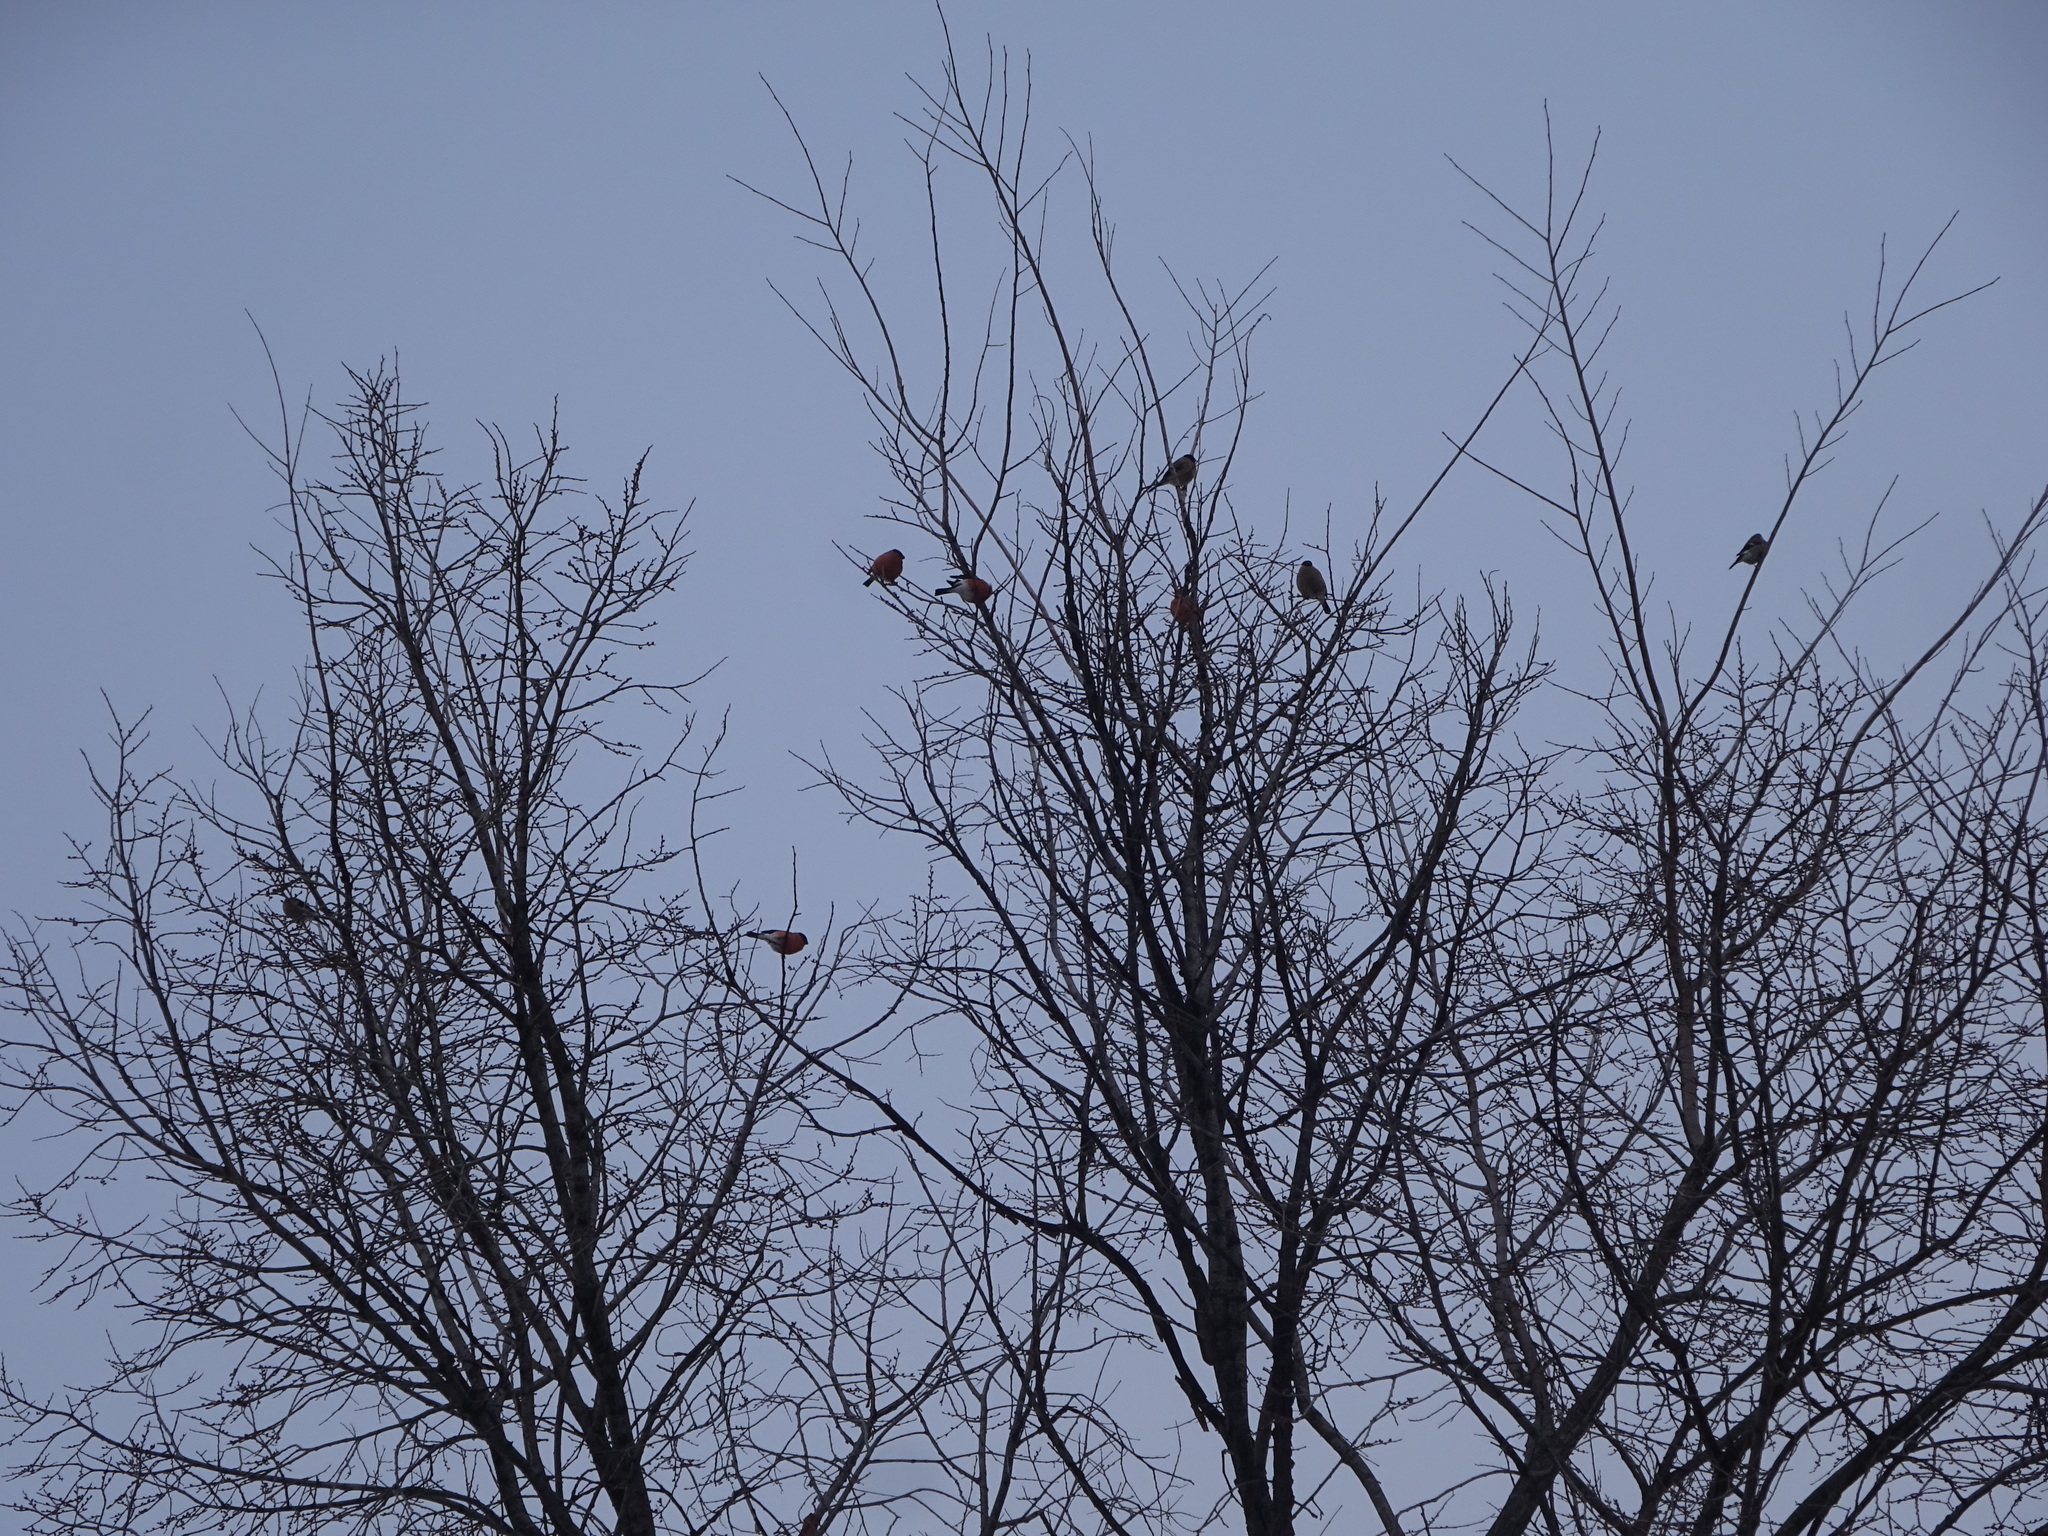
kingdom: Animalia
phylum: Chordata
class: Aves
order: Passeriformes
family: Fringillidae
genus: Pyrrhula
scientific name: Pyrrhula pyrrhula
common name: Eurasian bullfinch
